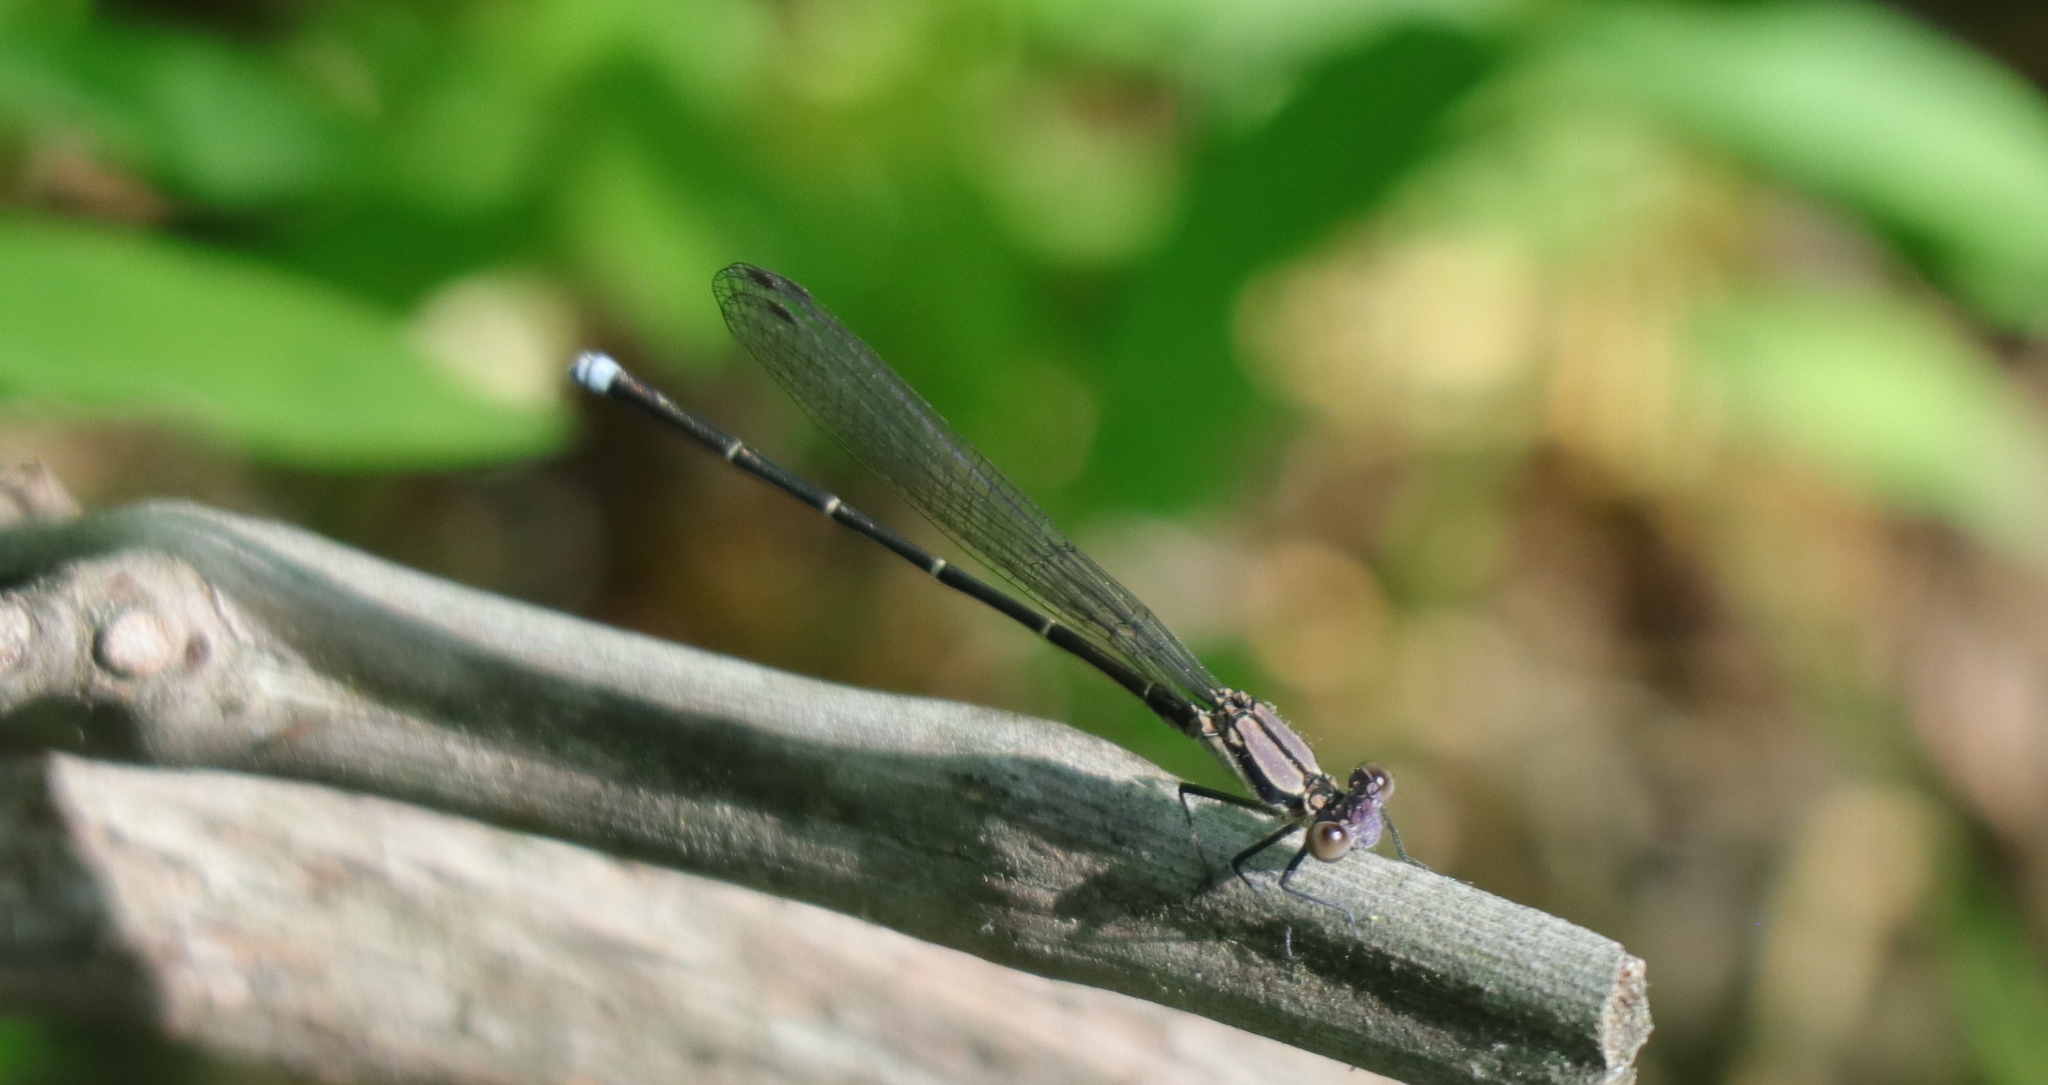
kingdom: Animalia
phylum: Arthropoda
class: Insecta
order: Odonata
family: Coenagrionidae
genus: Argia
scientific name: Argia tibialis
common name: Blue-tipped dancer
